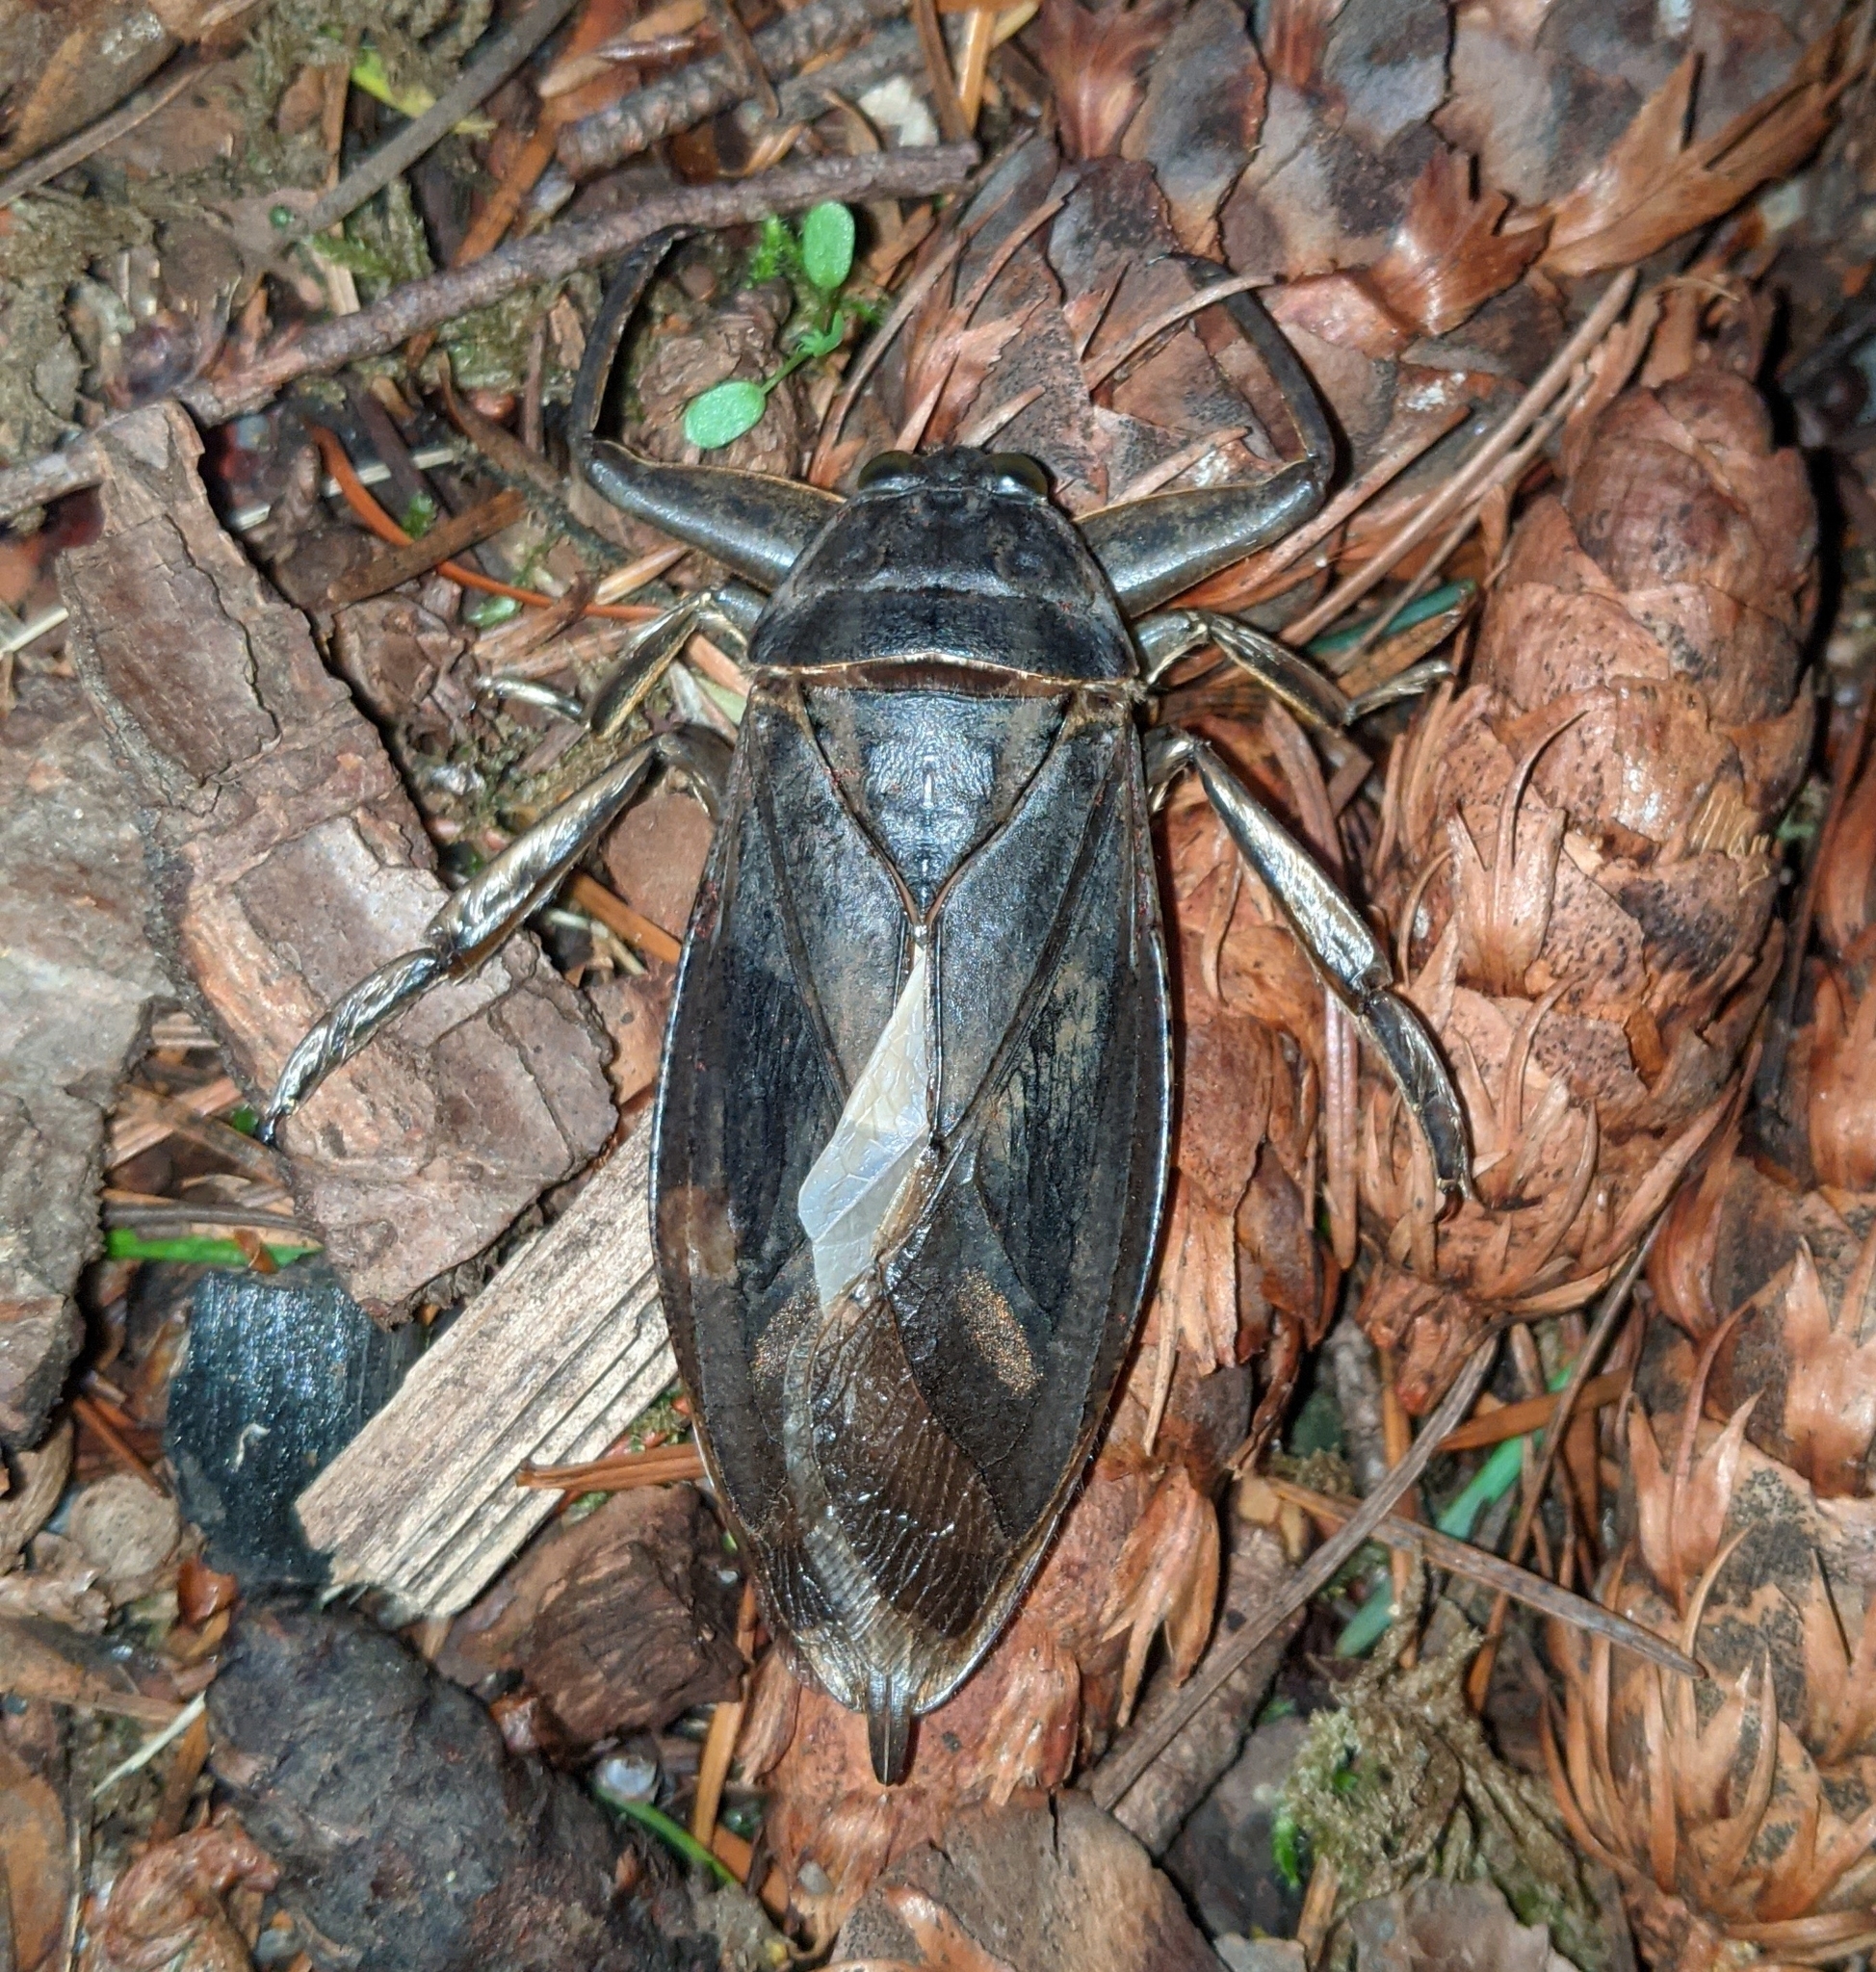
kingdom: Animalia
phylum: Arthropoda
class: Insecta
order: Hemiptera
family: Belostomatidae
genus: Lethocerus
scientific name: Lethocerus americanus
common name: Giant water bug
